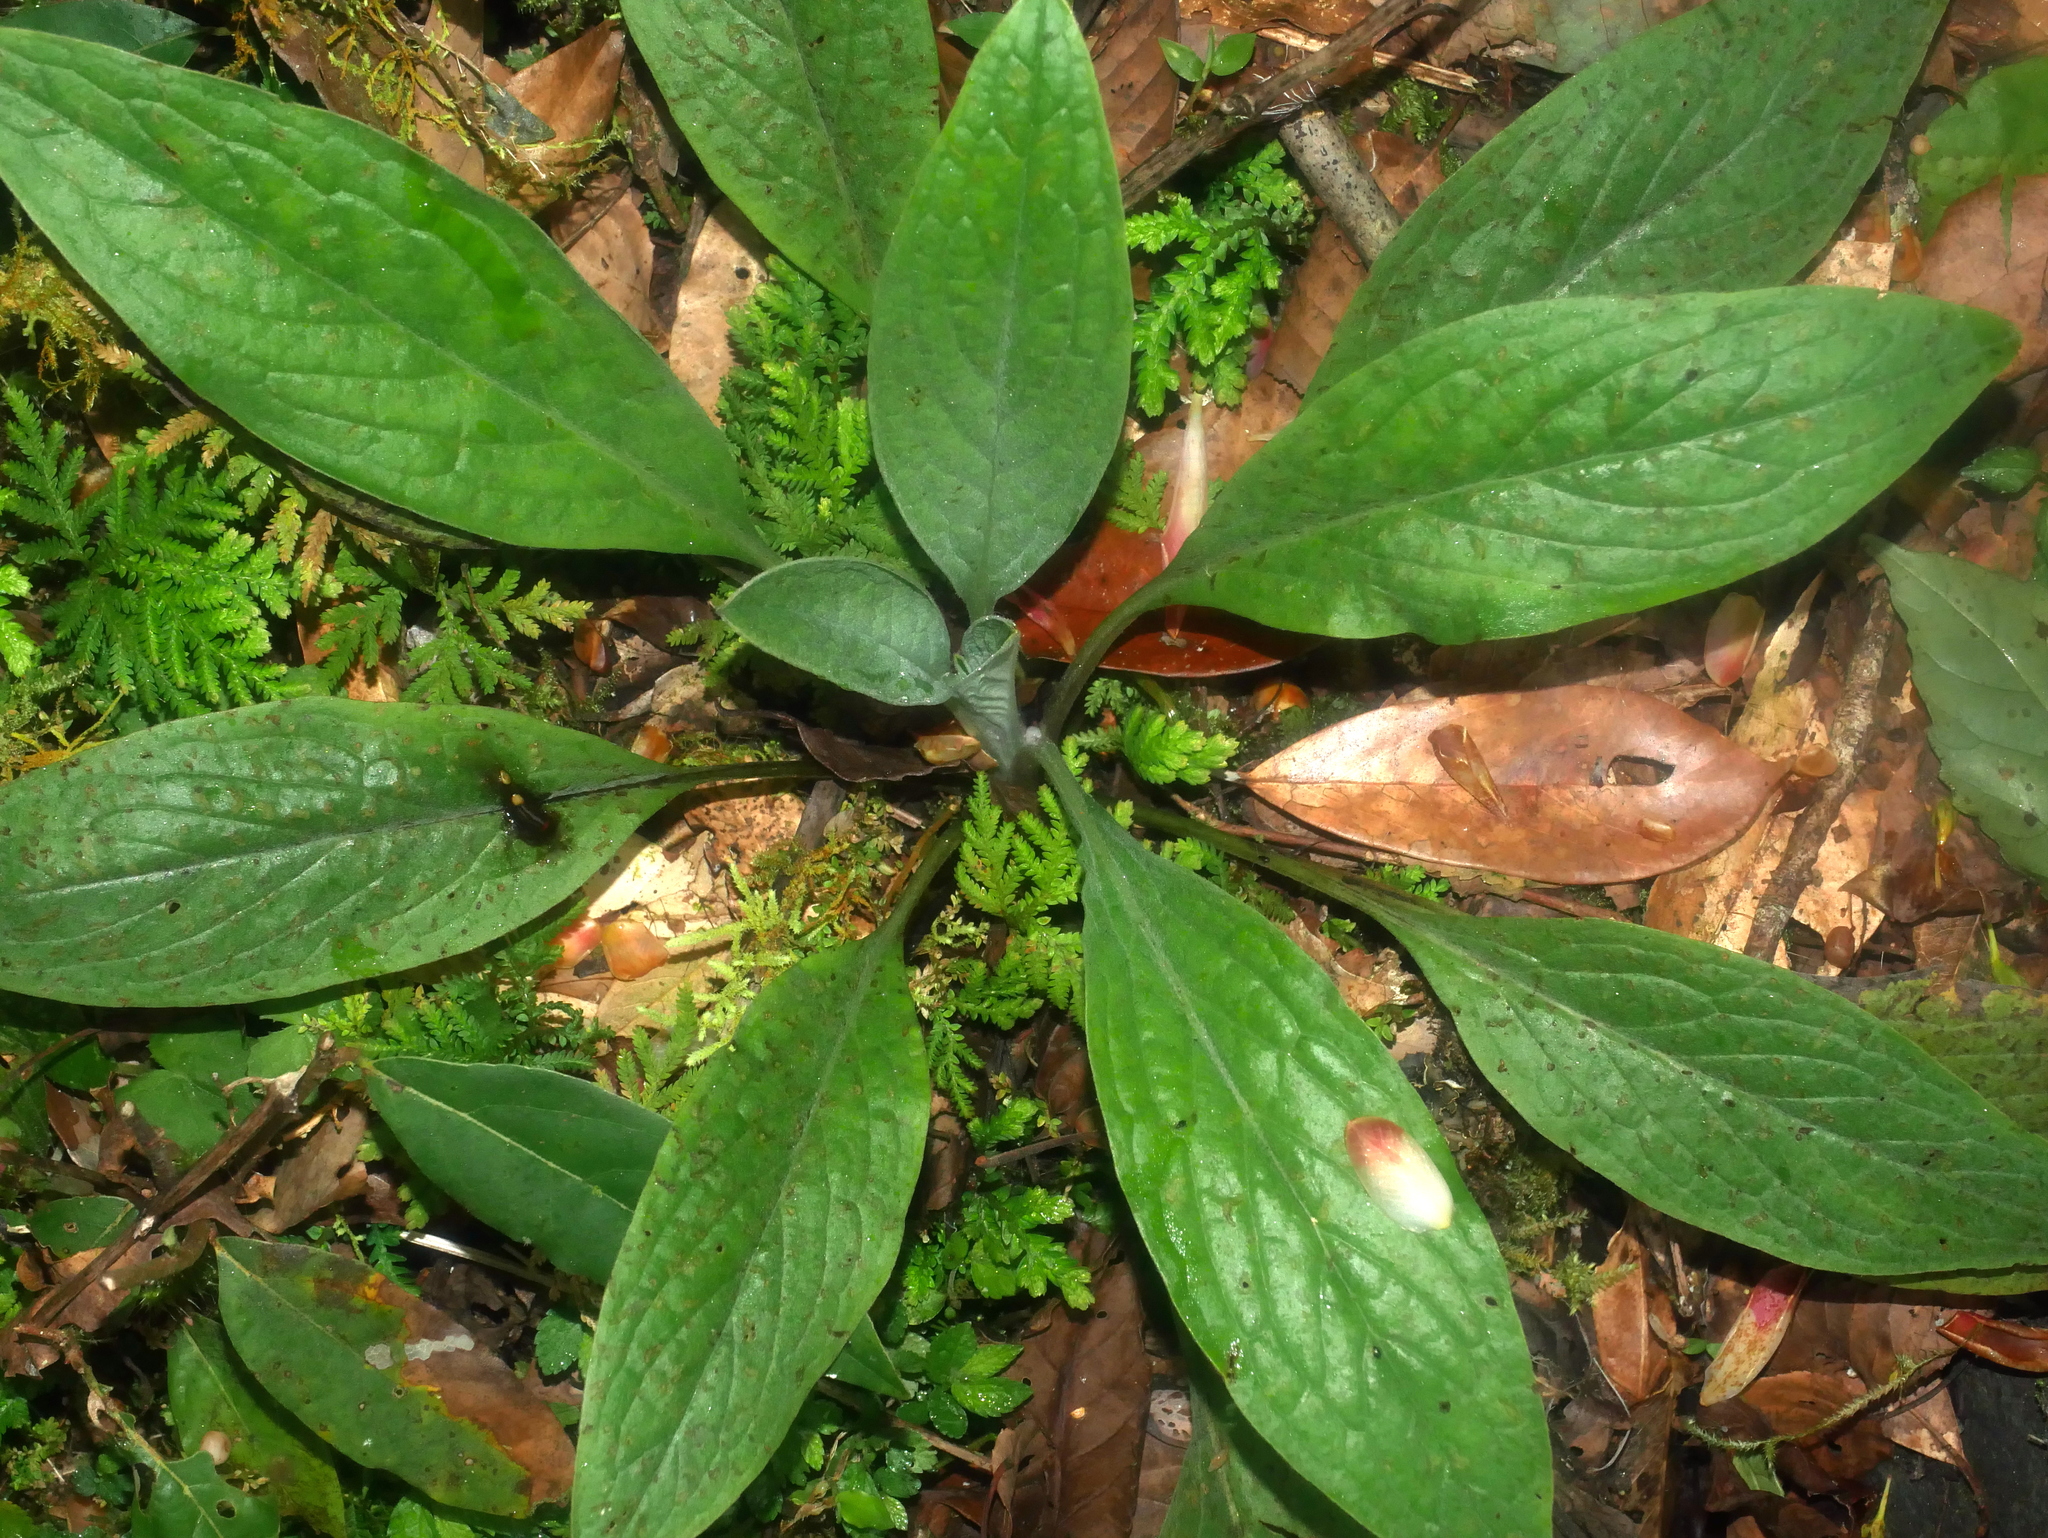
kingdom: Plantae
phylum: Tracheophyta
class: Magnoliopsida
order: Boraginales
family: Boraginaceae
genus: Cynoglossum
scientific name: Cynoglossum zeylanicum
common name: Ceylon hound's tongue
